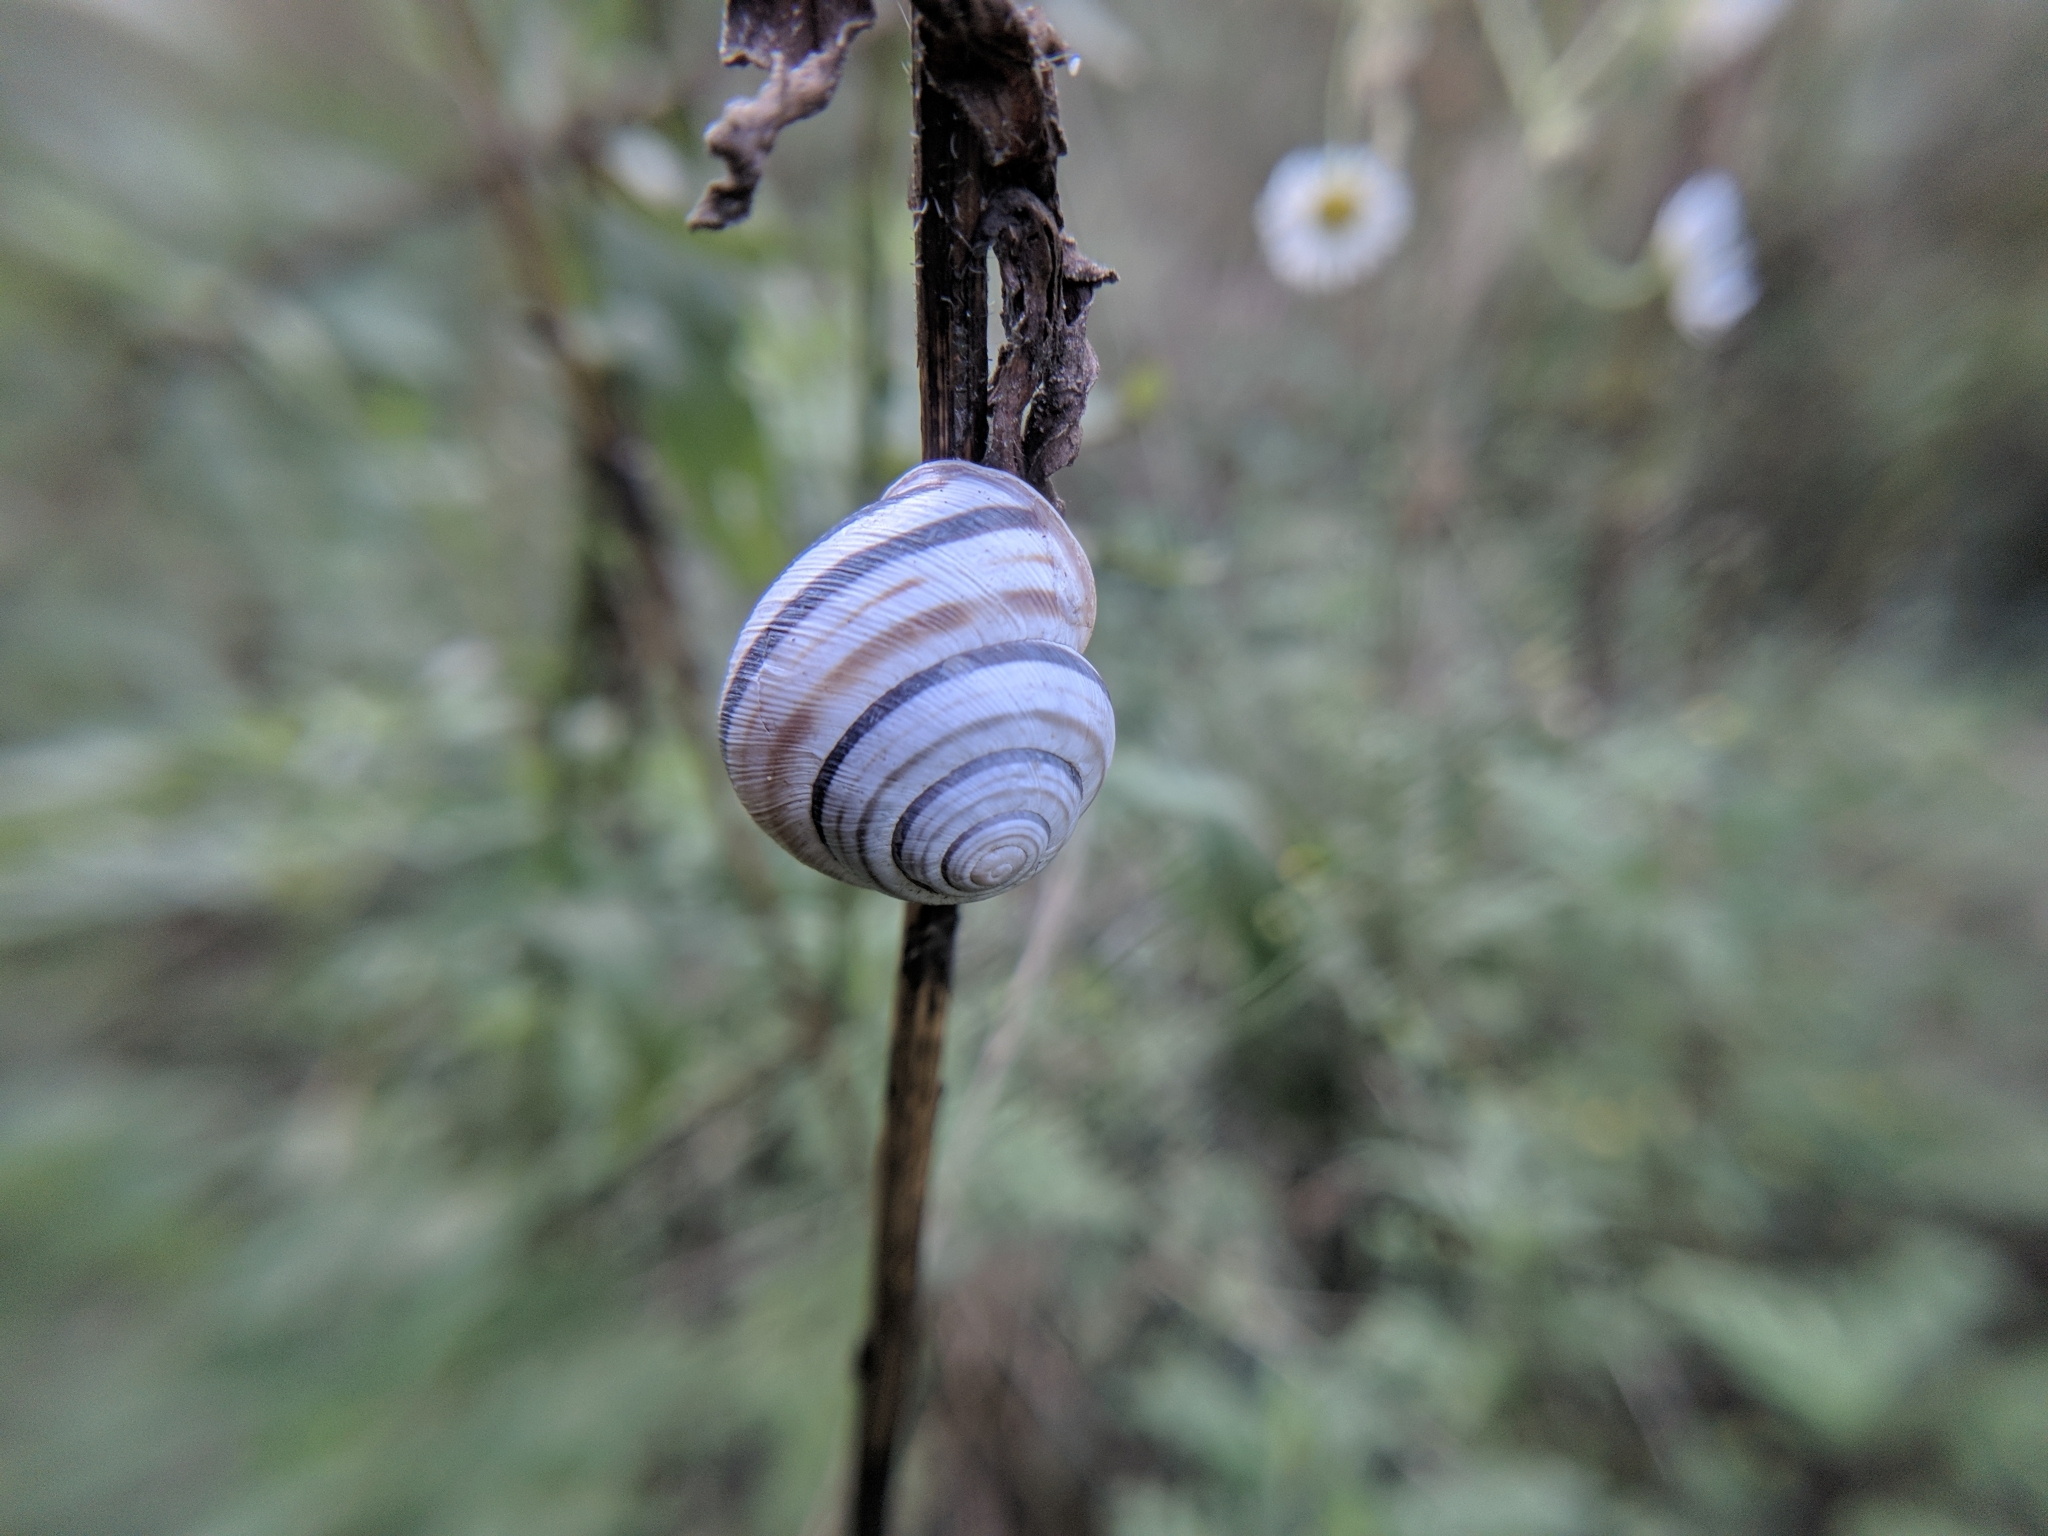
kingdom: Animalia
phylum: Mollusca
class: Gastropoda
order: Stylommatophora
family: Helicidae
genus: Caucasotachea
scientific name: Caucasotachea vindobonensis
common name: European helicid land snail
